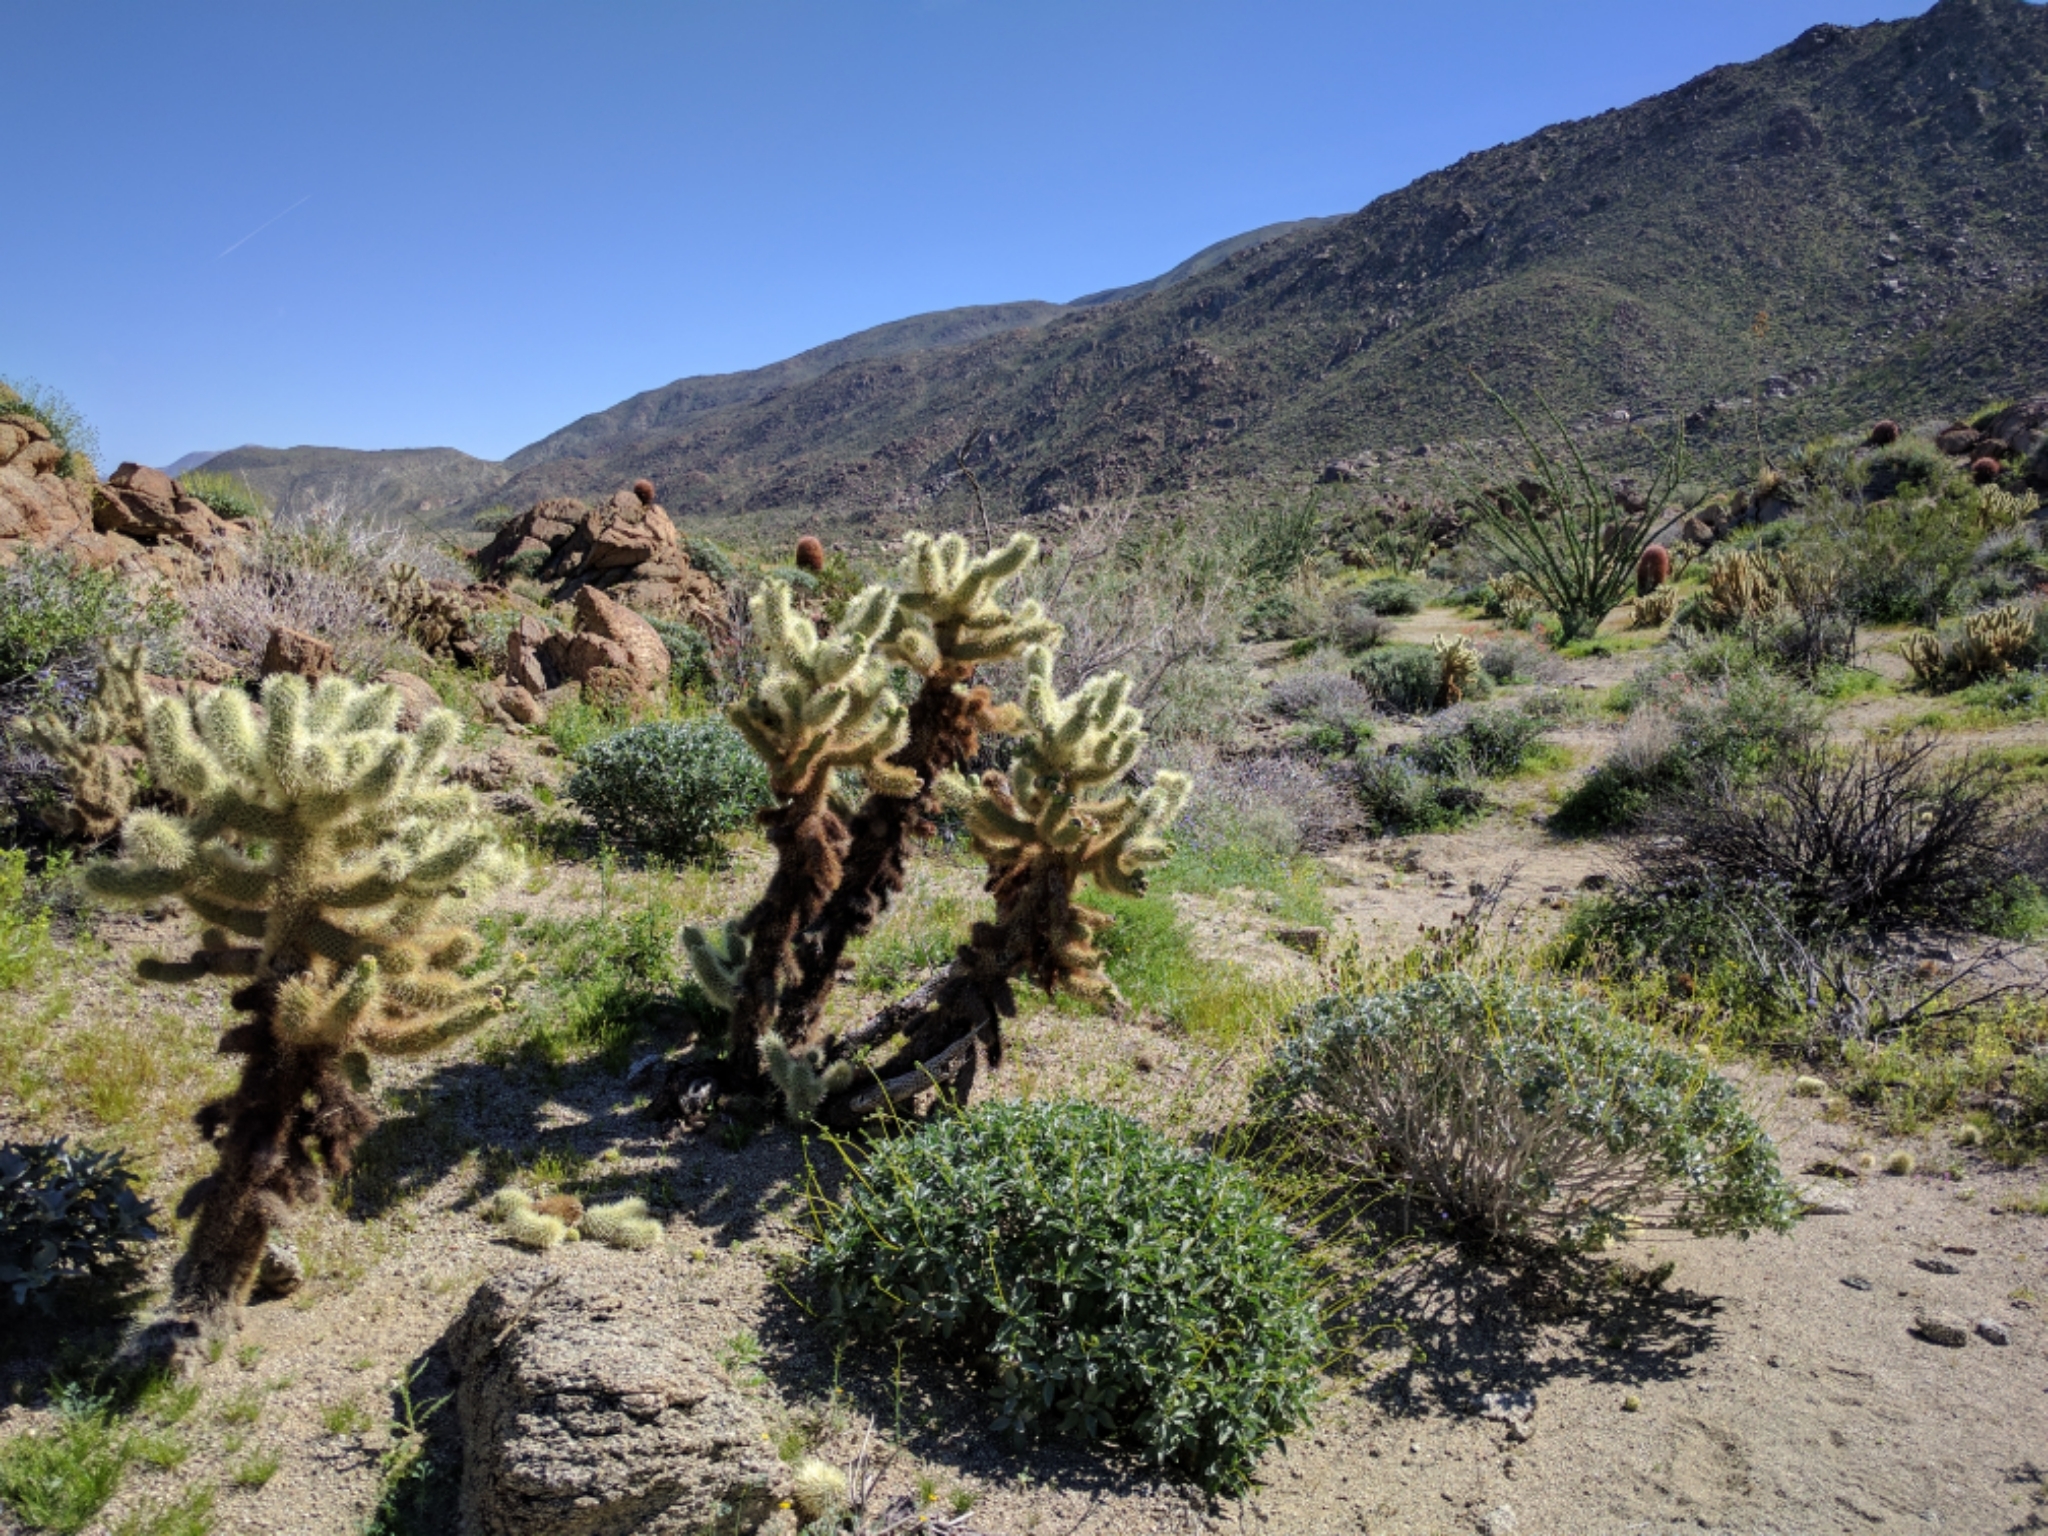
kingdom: Plantae
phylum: Tracheophyta
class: Magnoliopsida
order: Caryophyllales
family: Cactaceae
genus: Cylindropuntia
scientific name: Cylindropuntia fosbergii
